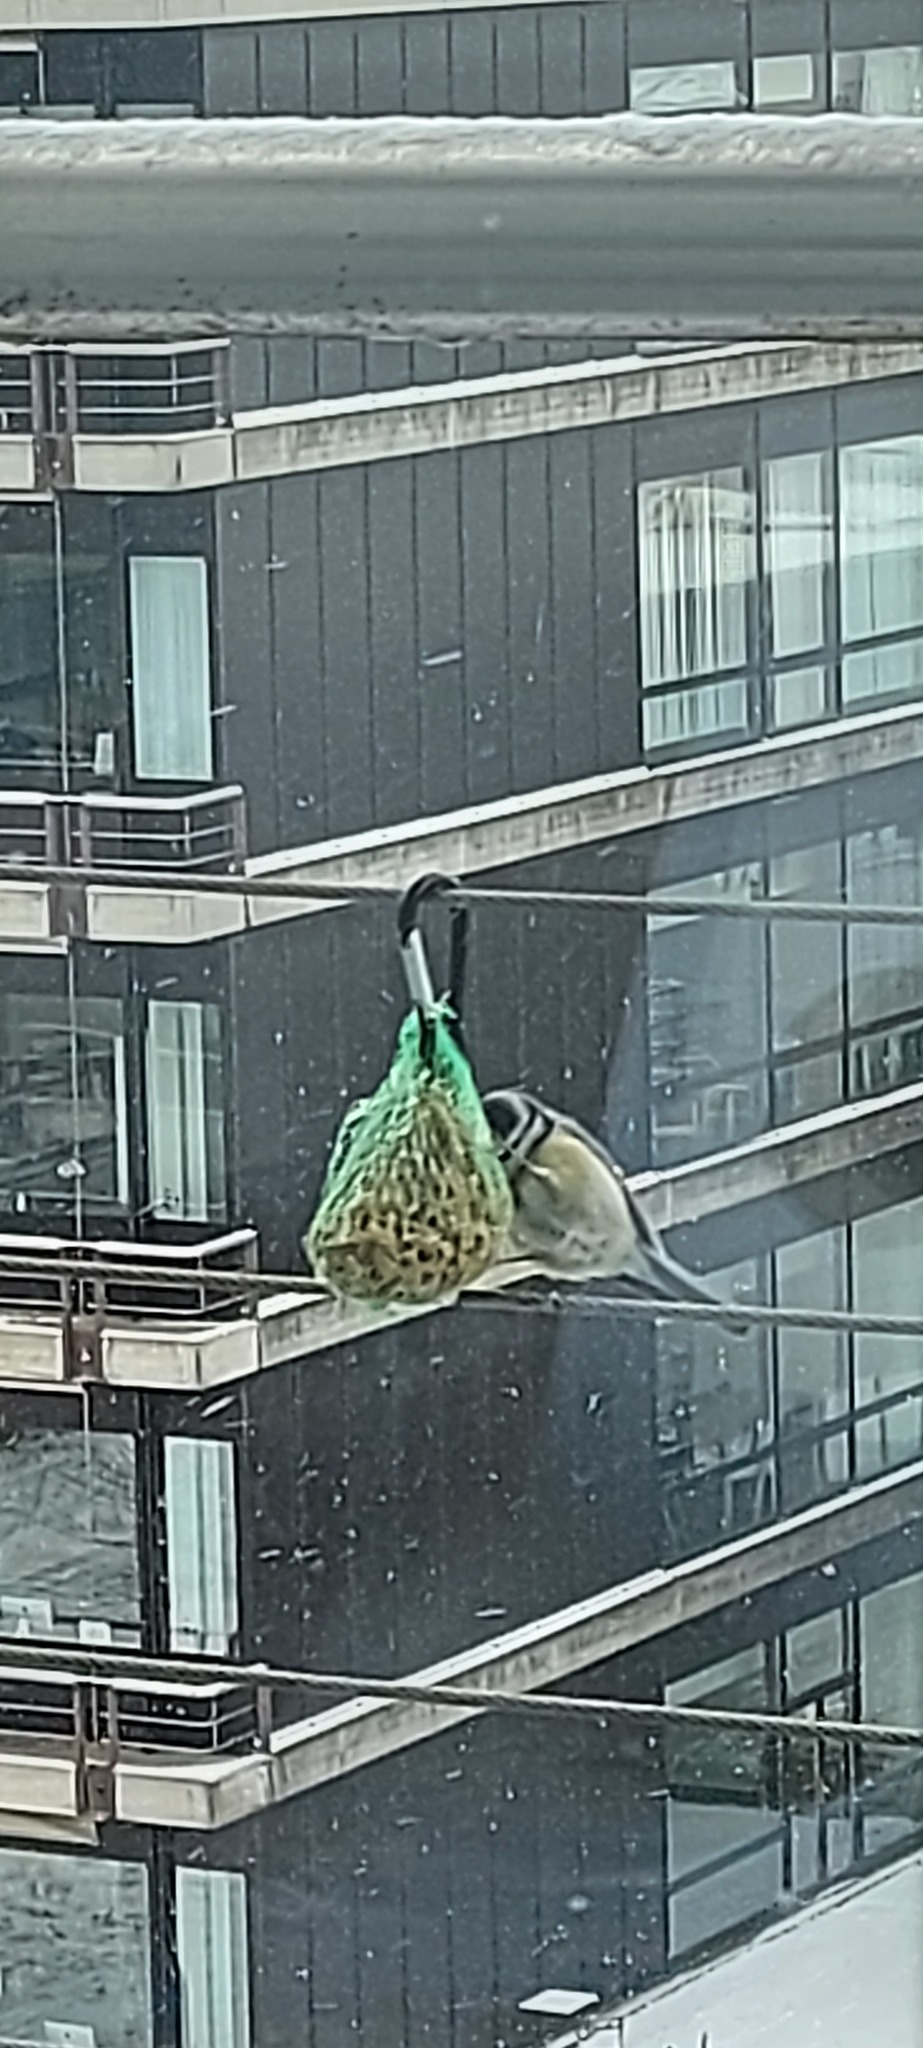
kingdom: Animalia
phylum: Chordata
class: Aves
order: Passeriformes
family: Paridae
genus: Cyanistes
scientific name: Cyanistes caeruleus
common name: Eurasian blue tit
